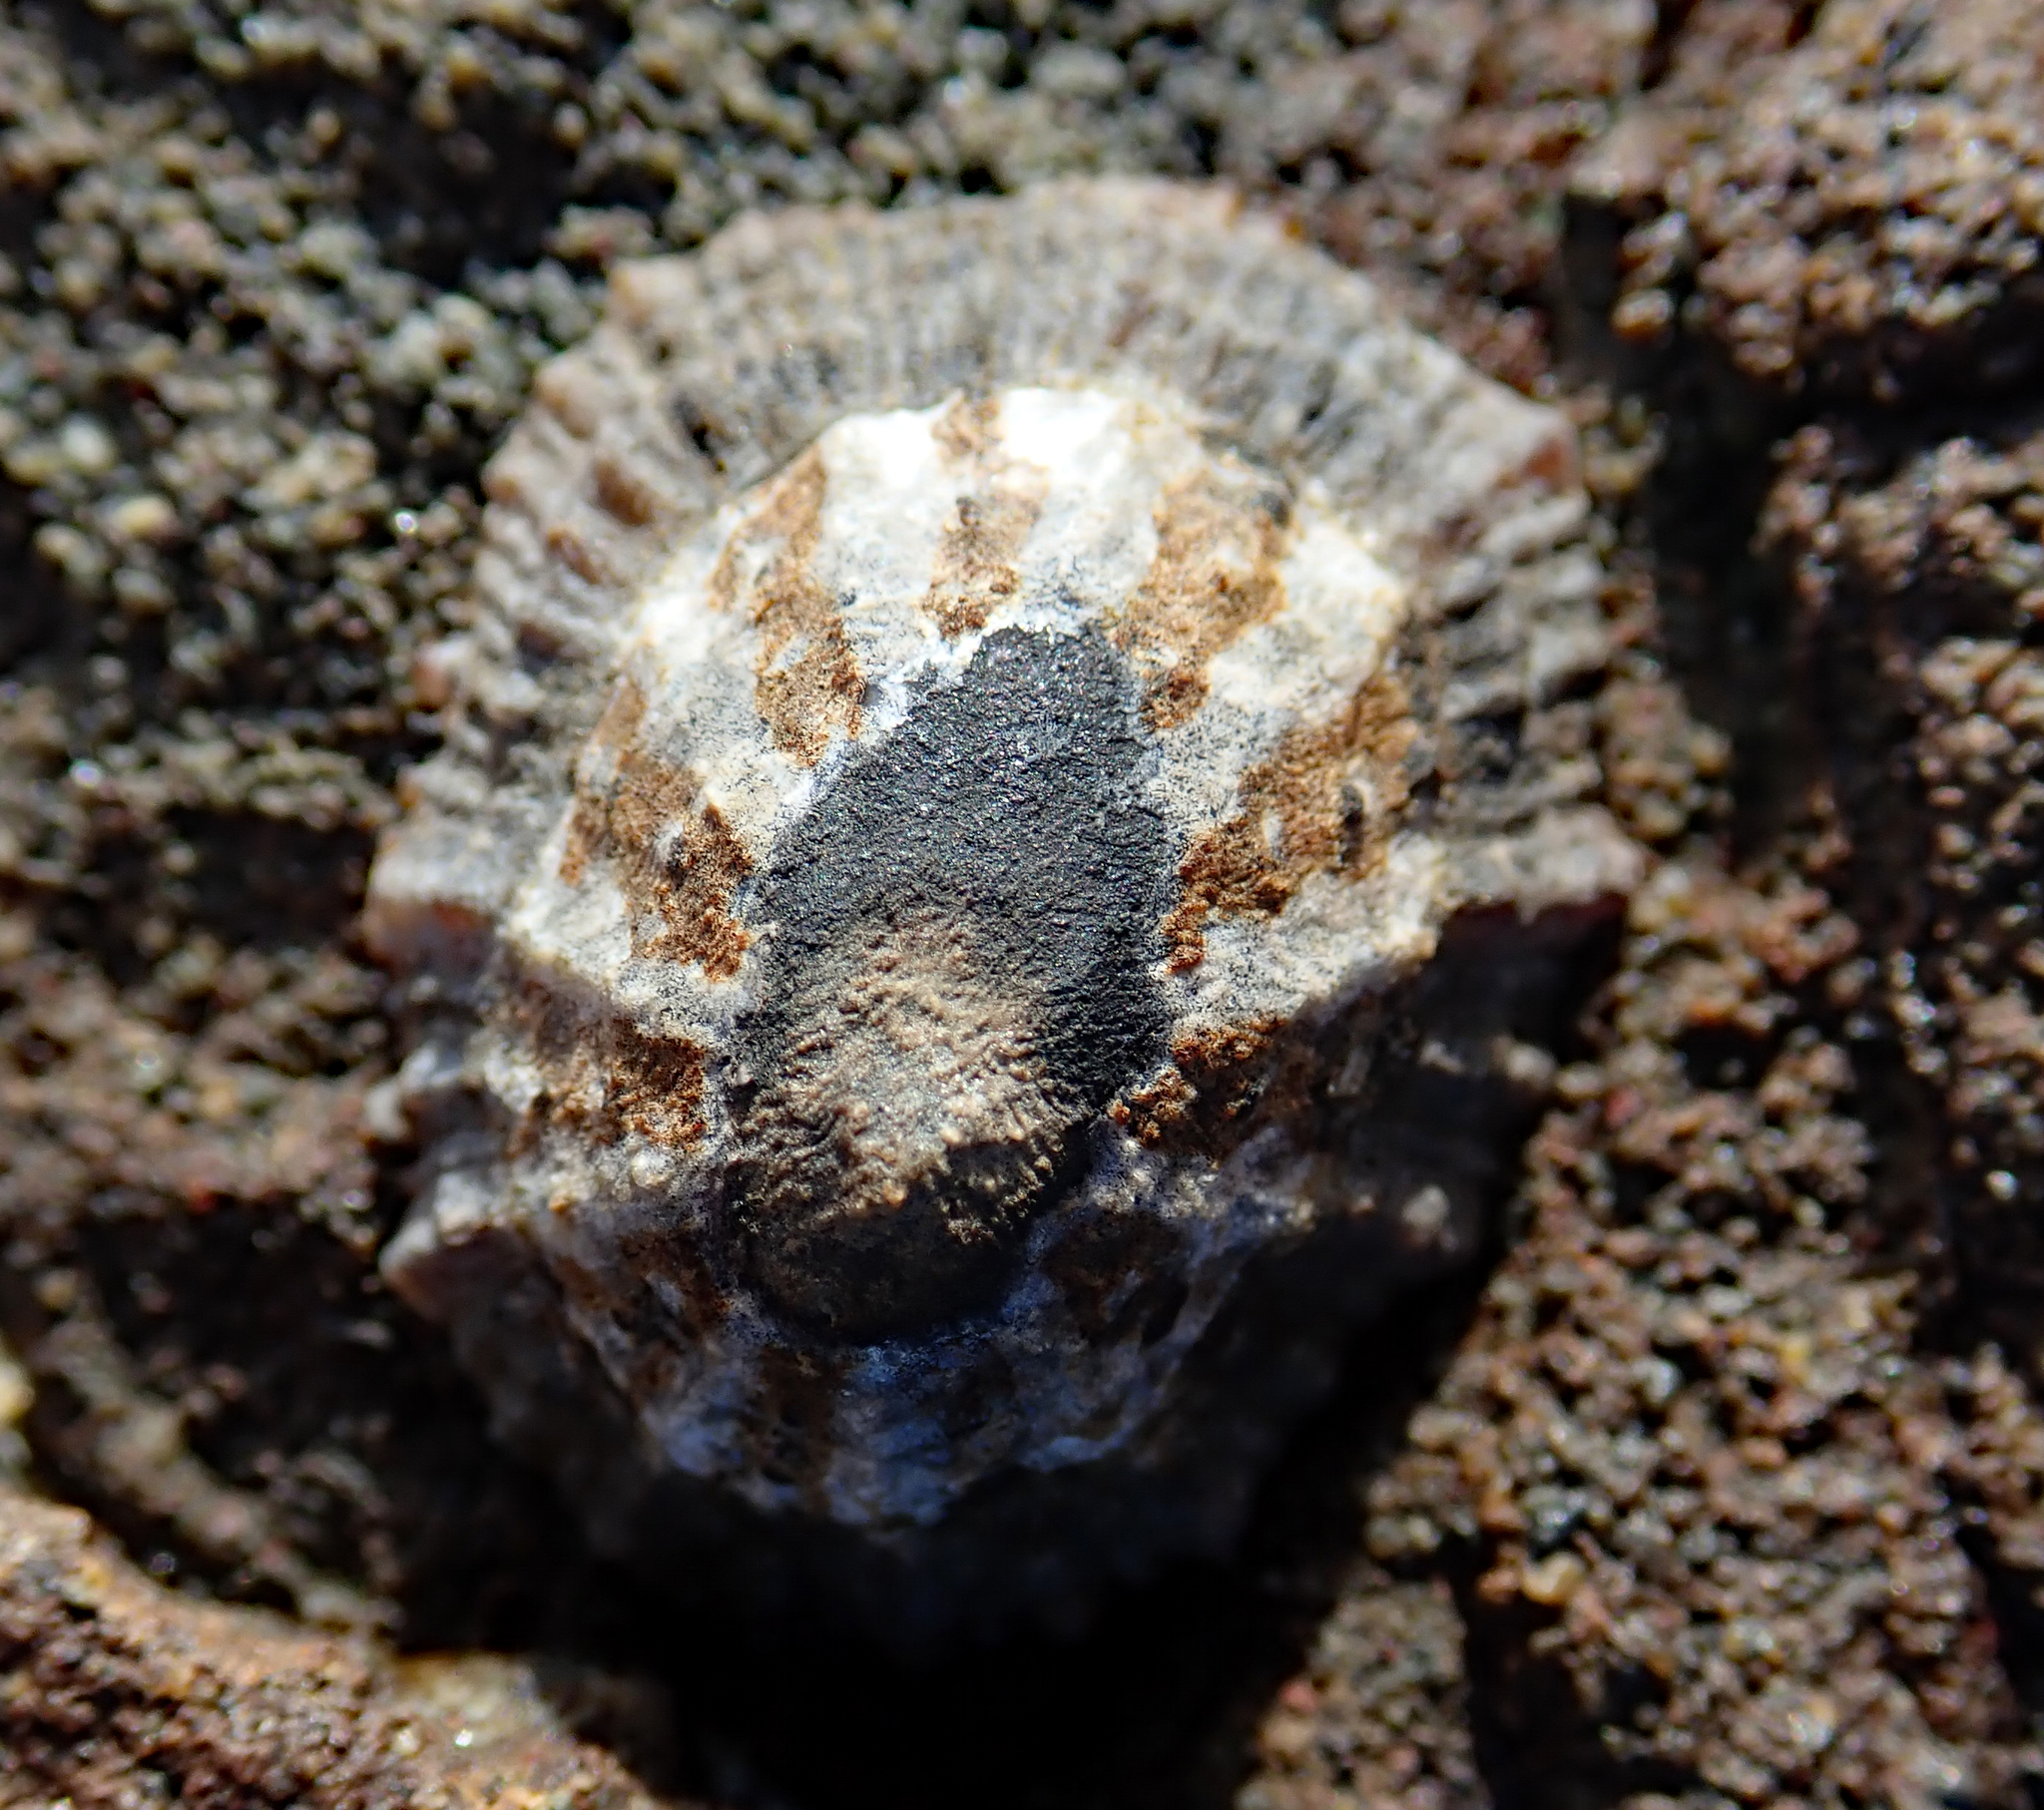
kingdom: Animalia
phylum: Mollusca
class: Gastropoda
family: Nacellidae
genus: Cellana
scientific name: Cellana ornata
